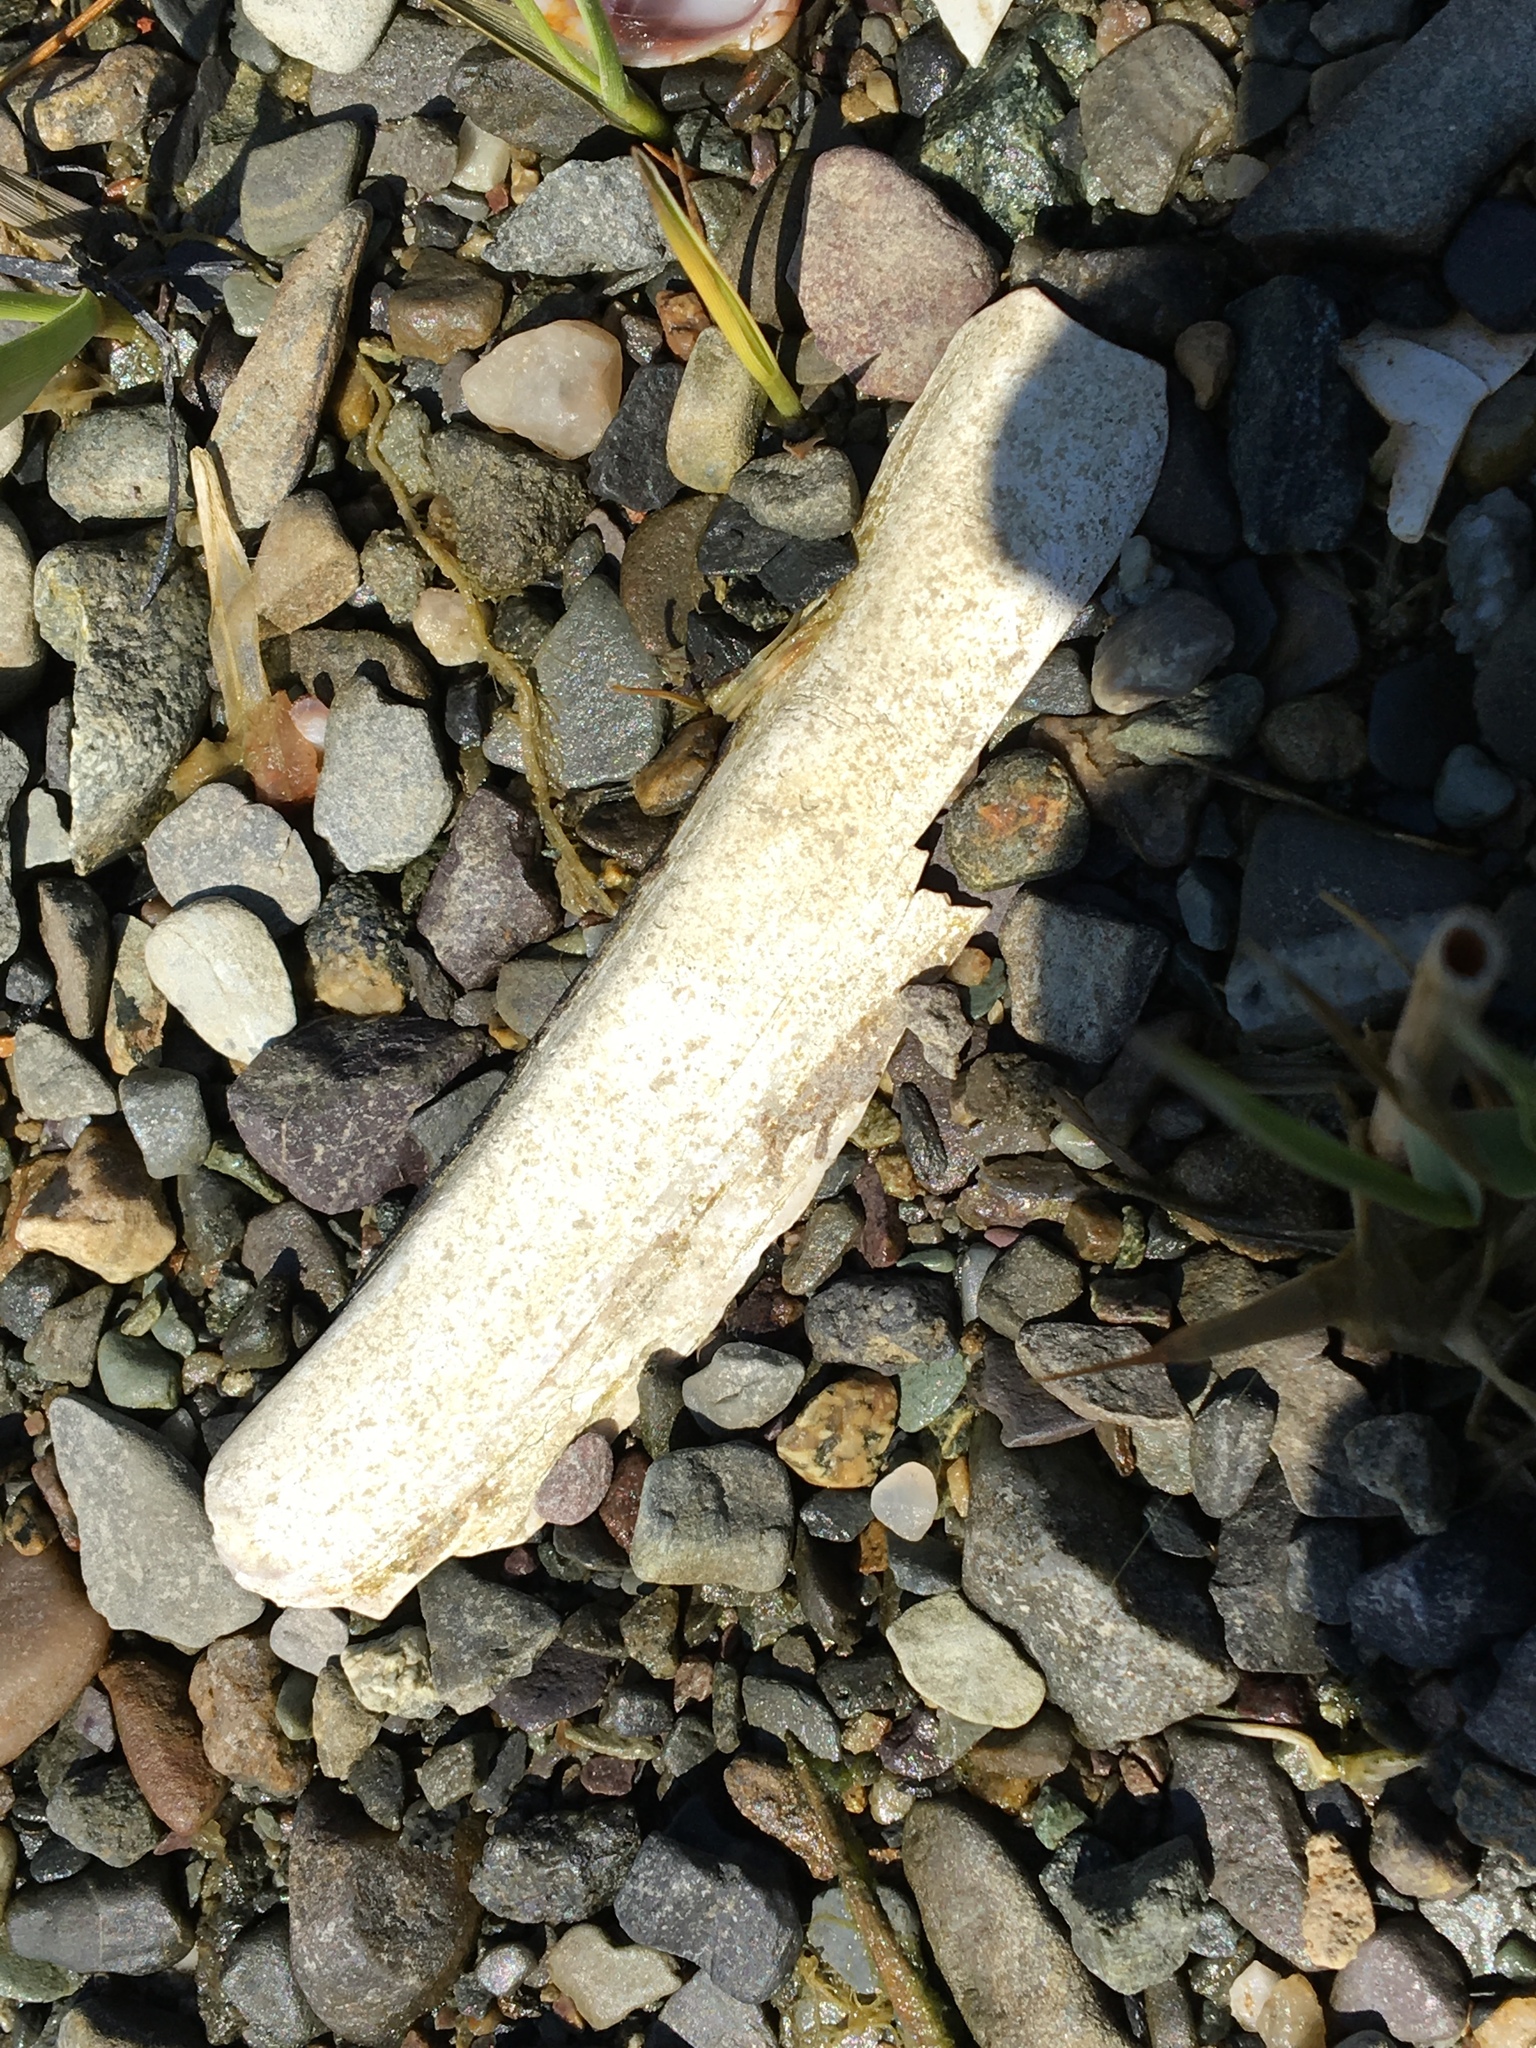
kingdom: Animalia
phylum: Mollusca
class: Bivalvia
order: Adapedonta
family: Pharidae
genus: Ensis
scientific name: Ensis leei
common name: American jack knife clam
